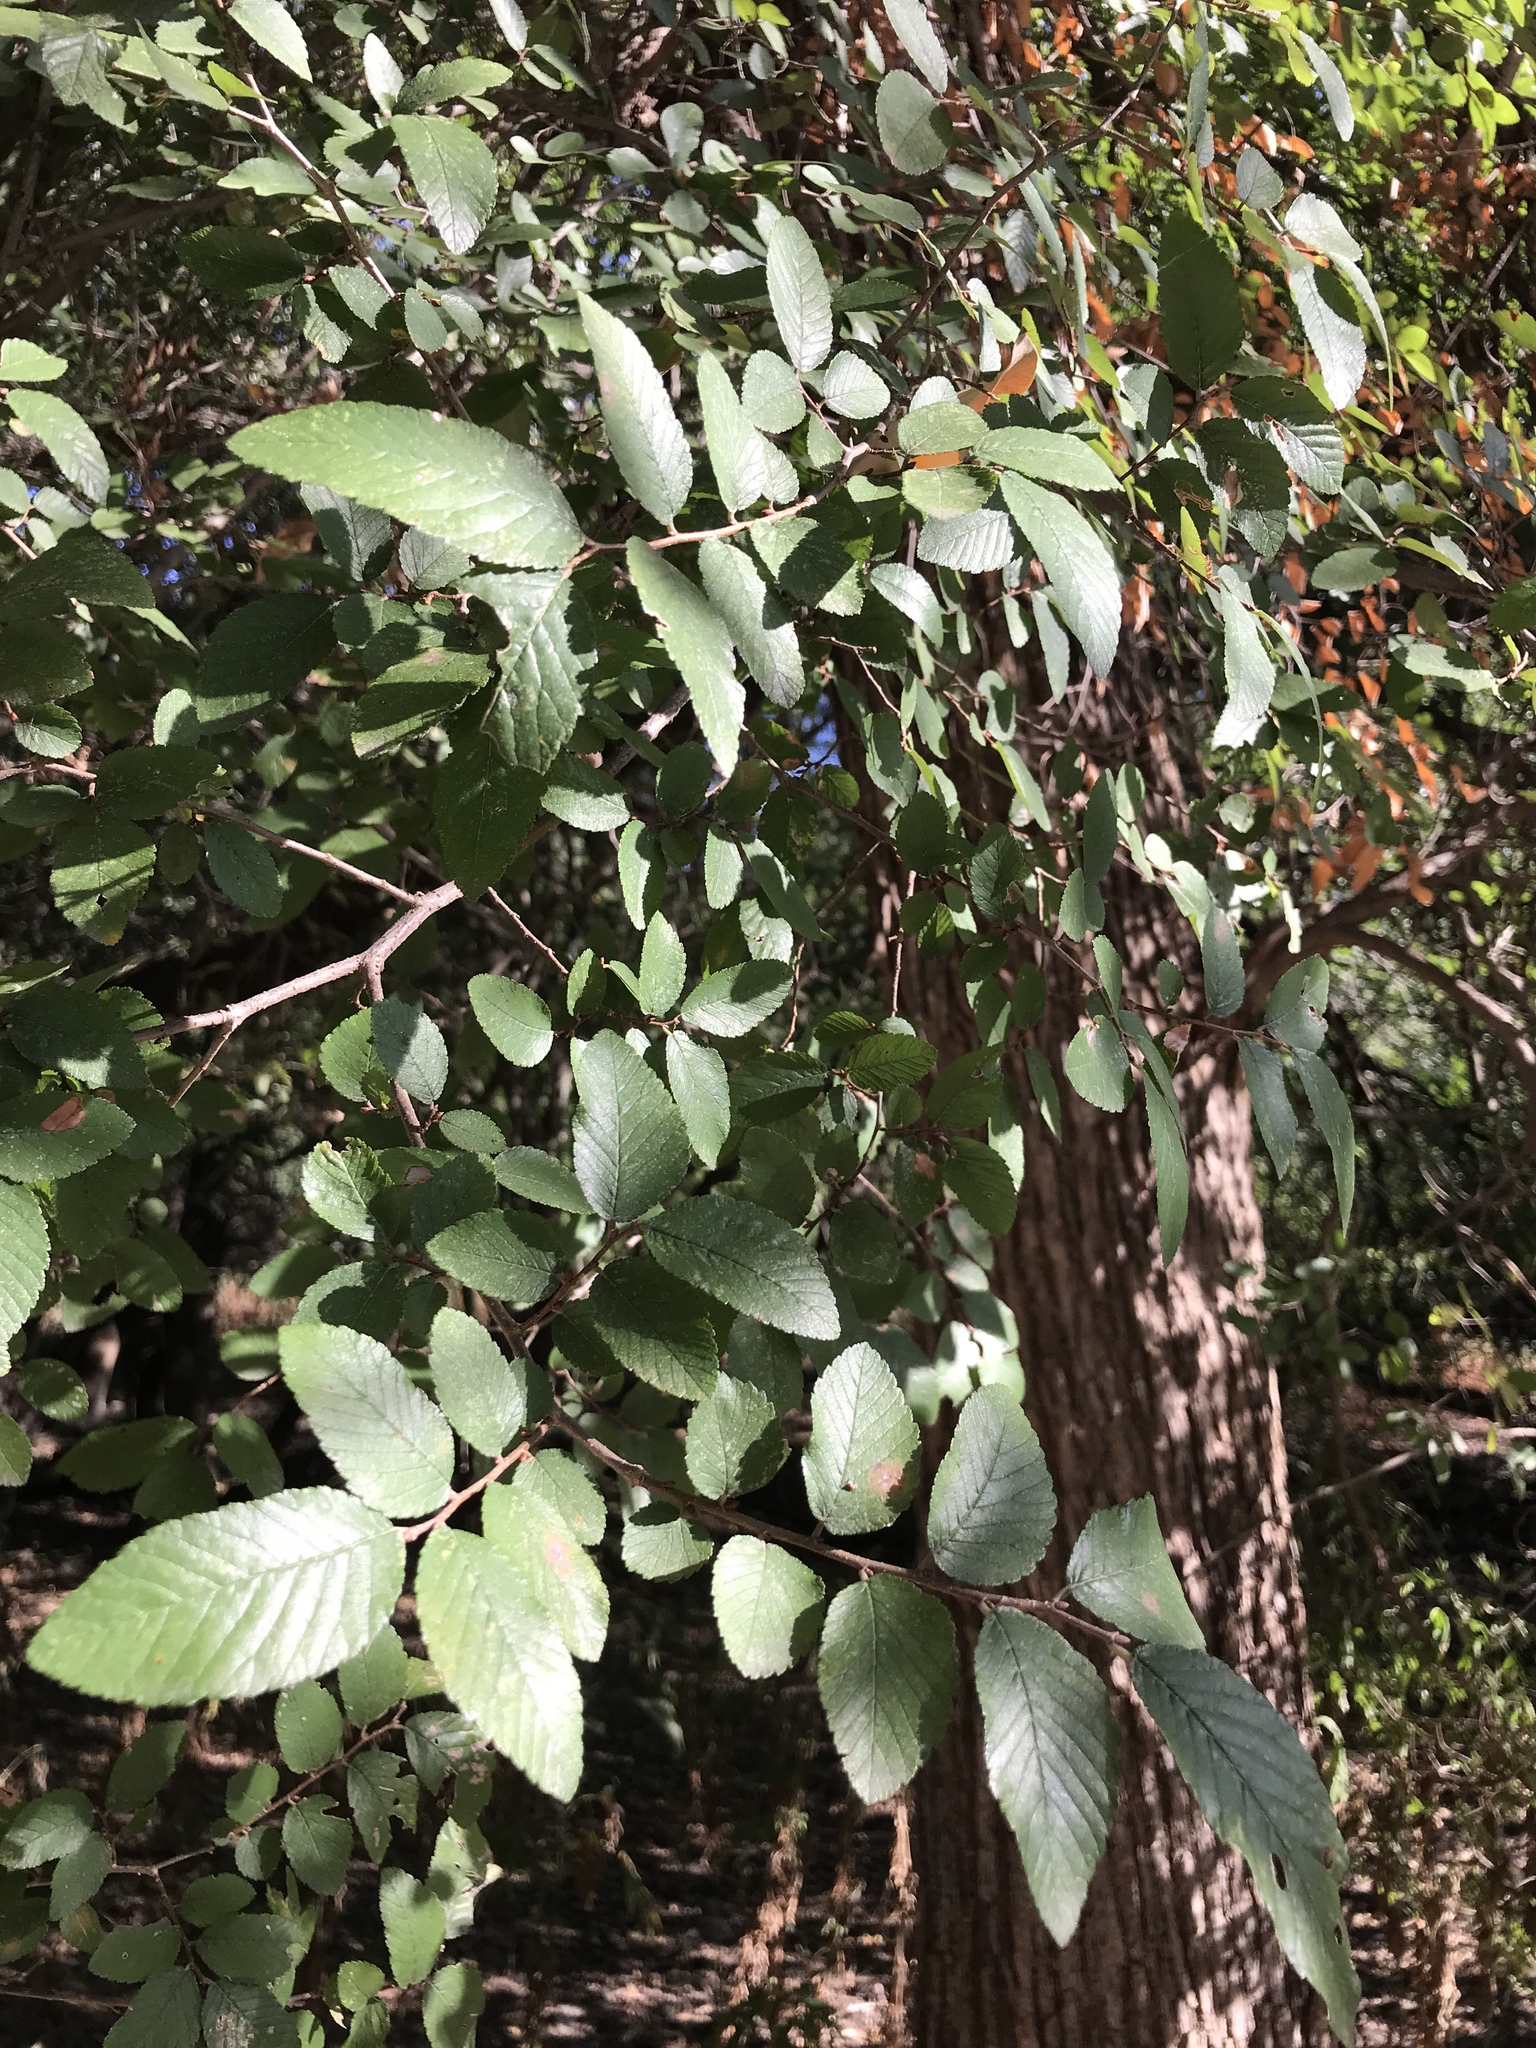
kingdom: Plantae
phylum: Tracheophyta
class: Magnoliopsida
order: Rosales
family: Ulmaceae
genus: Ulmus
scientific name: Ulmus crassifolia
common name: Basket elm
